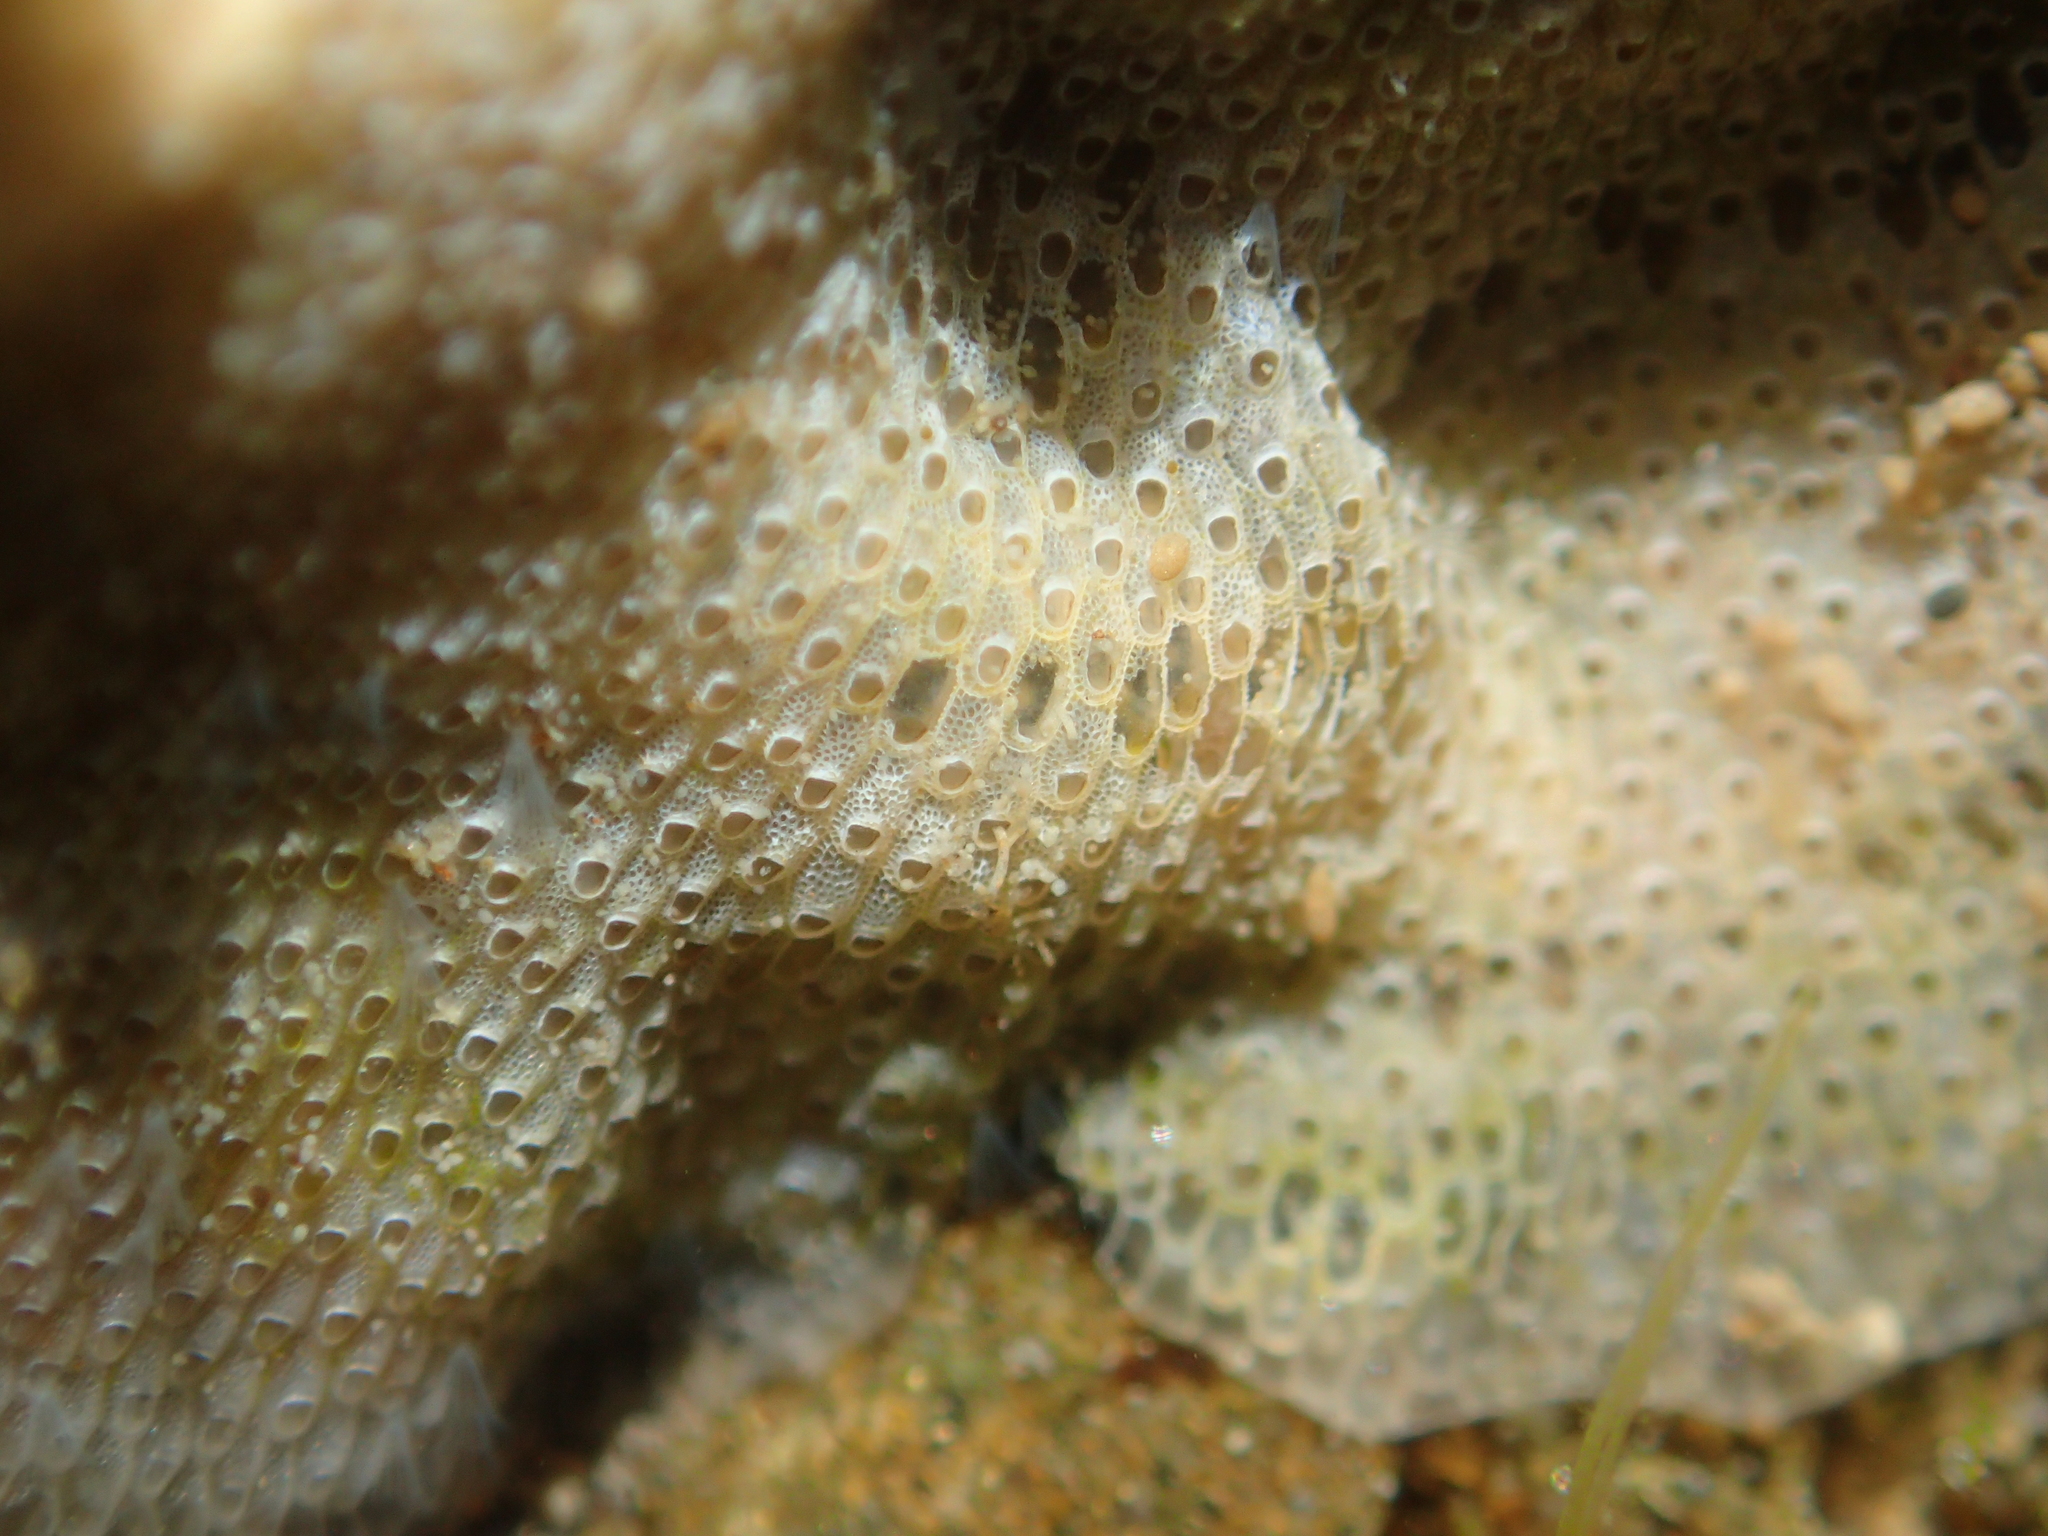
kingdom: Animalia
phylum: Bryozoa
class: Gymnolaemata
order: Cheilostomatida
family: Cryptosulidae
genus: Cryptosula
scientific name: Cryptosula pallasiana
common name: Red crust
